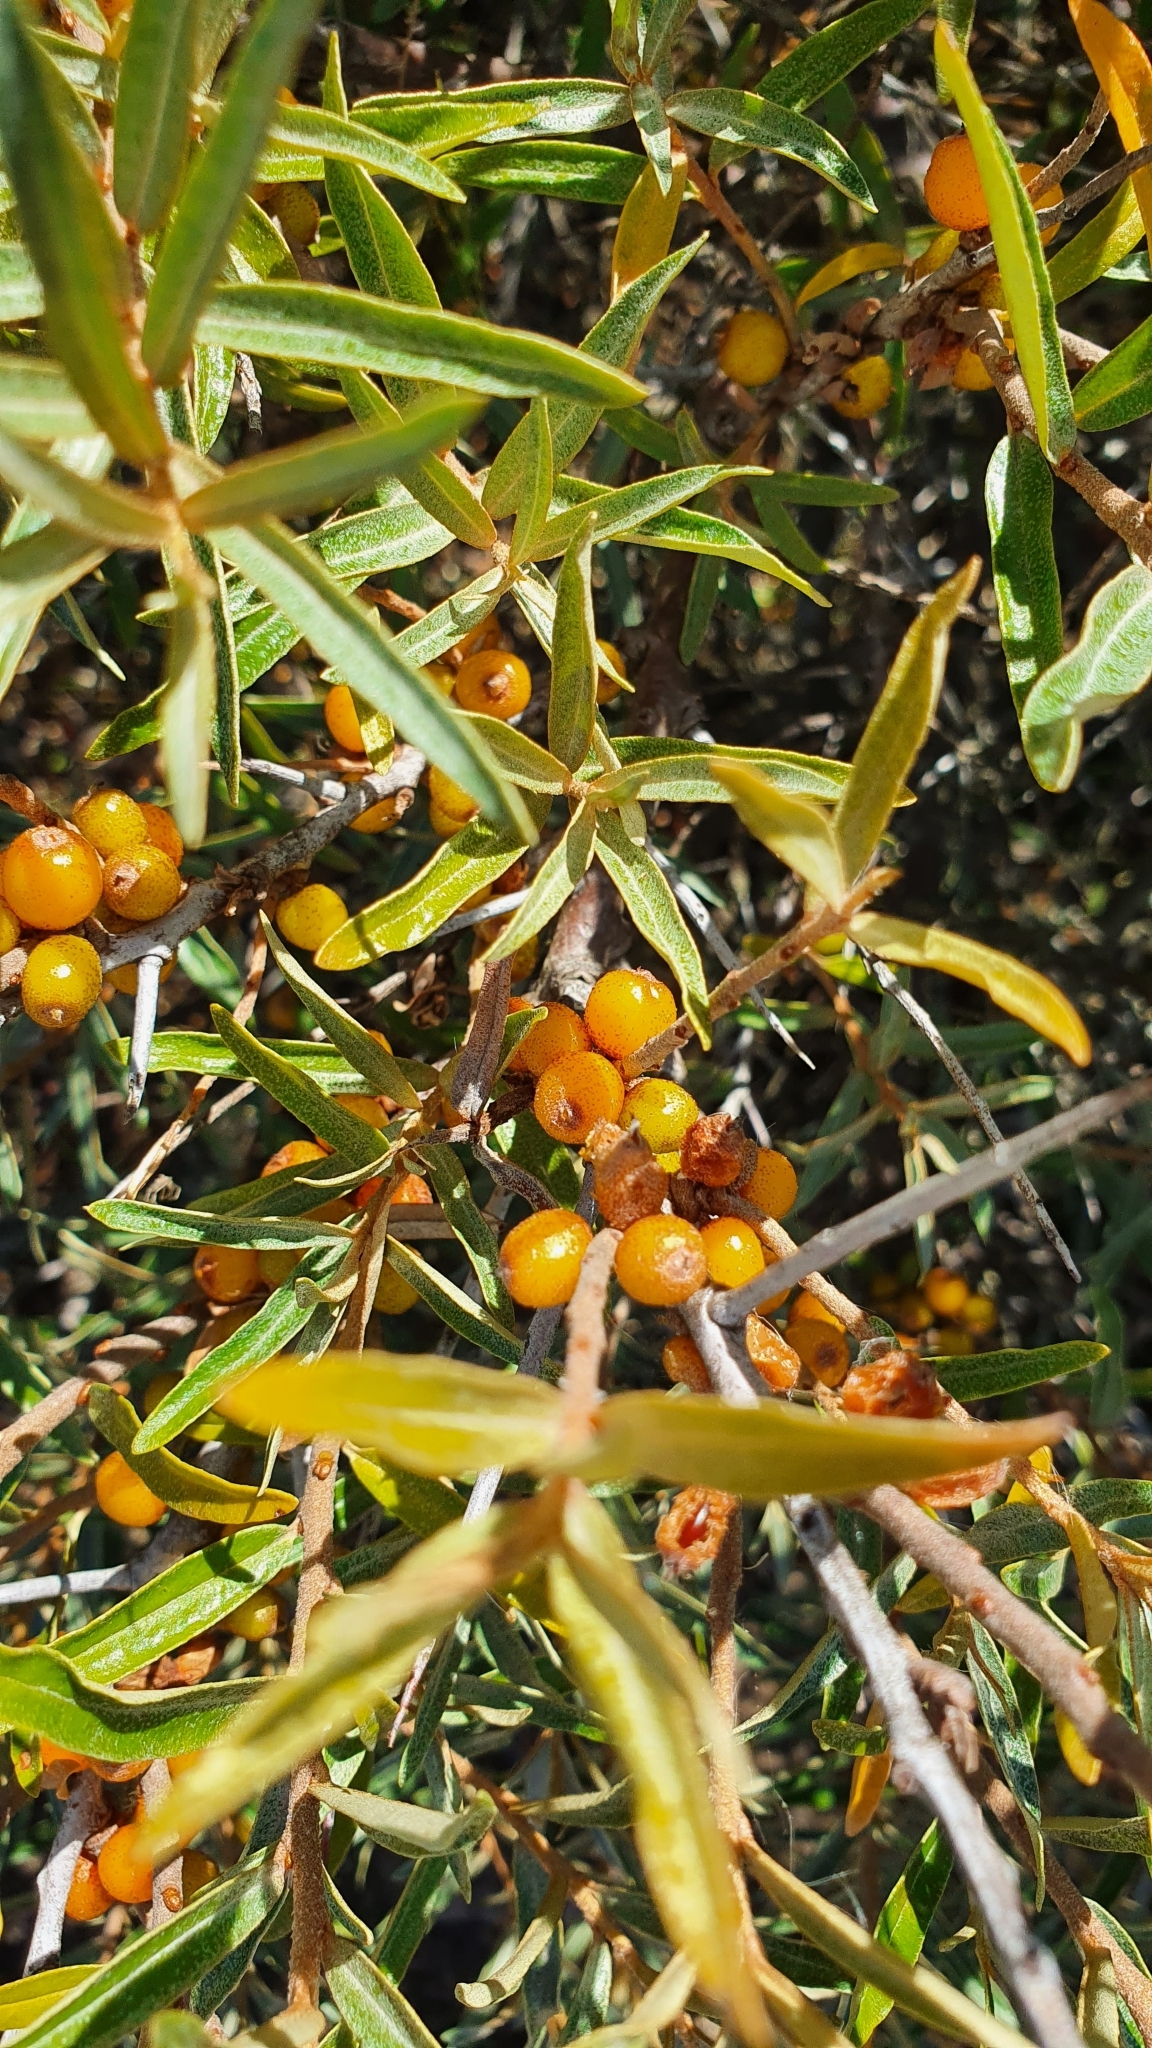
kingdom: Plantae
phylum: Tracheophyta
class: Magnoliopsida
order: Rosales
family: Elaeagnaceae
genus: Hippophae
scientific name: Hippophae rhamnoides
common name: Sea-buckthorn
